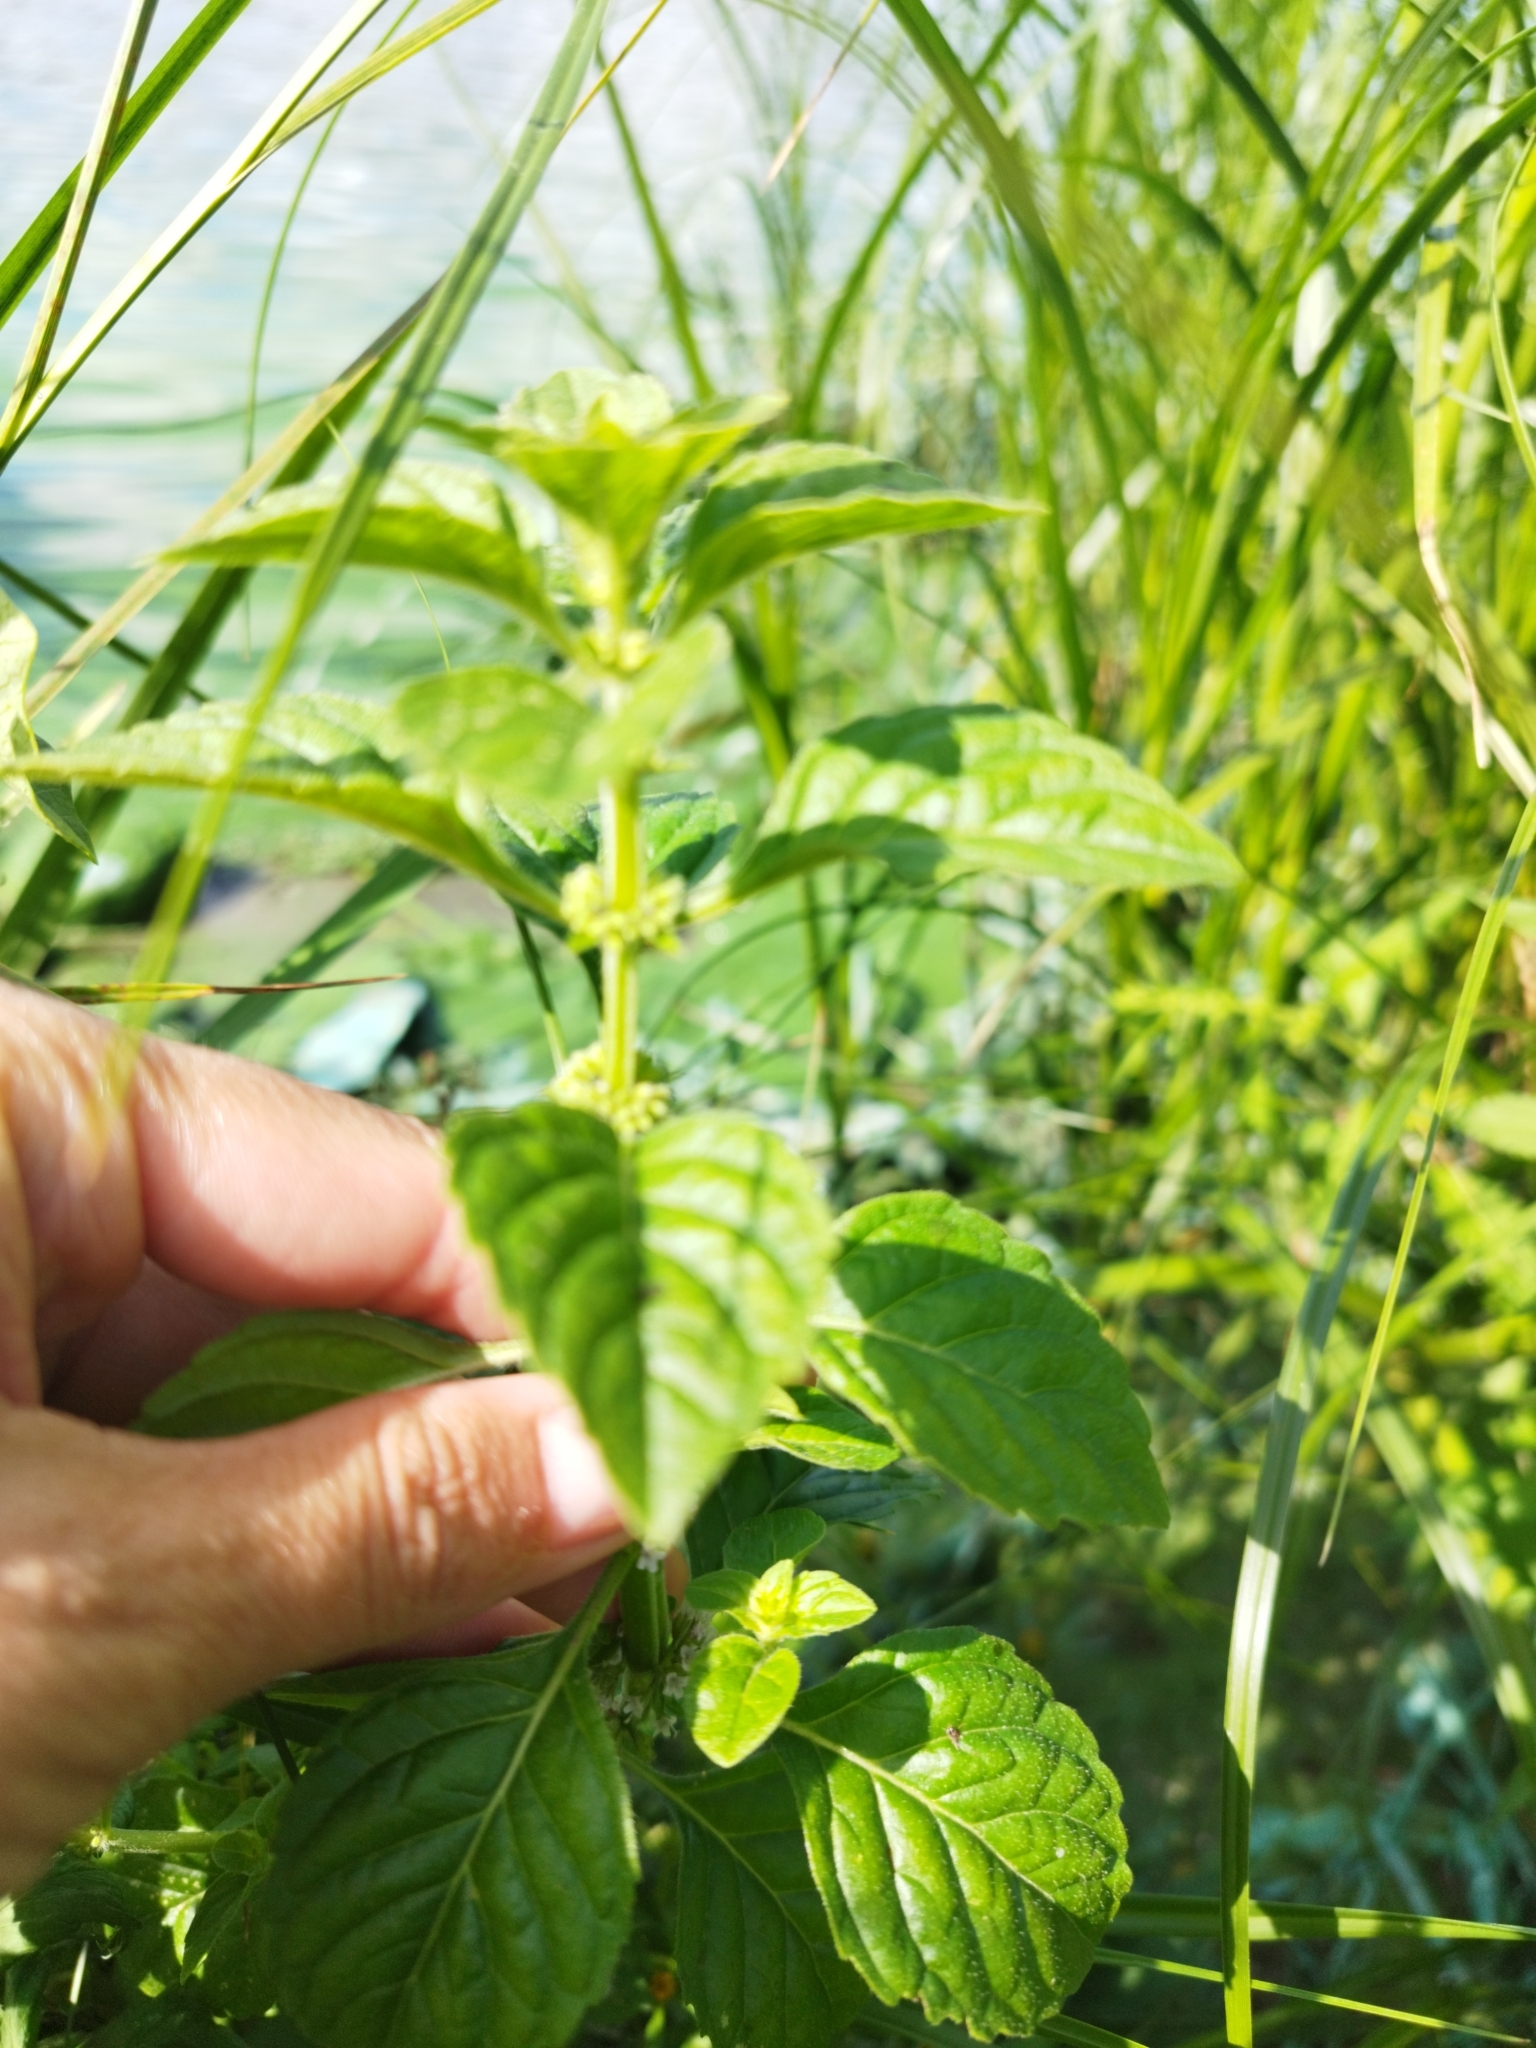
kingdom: Plantae
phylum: Tracheophyta
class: Magnoliopsida
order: Lamiales
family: Lamiaceae
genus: Mentha
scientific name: Mentha arvensis
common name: Corn mint
